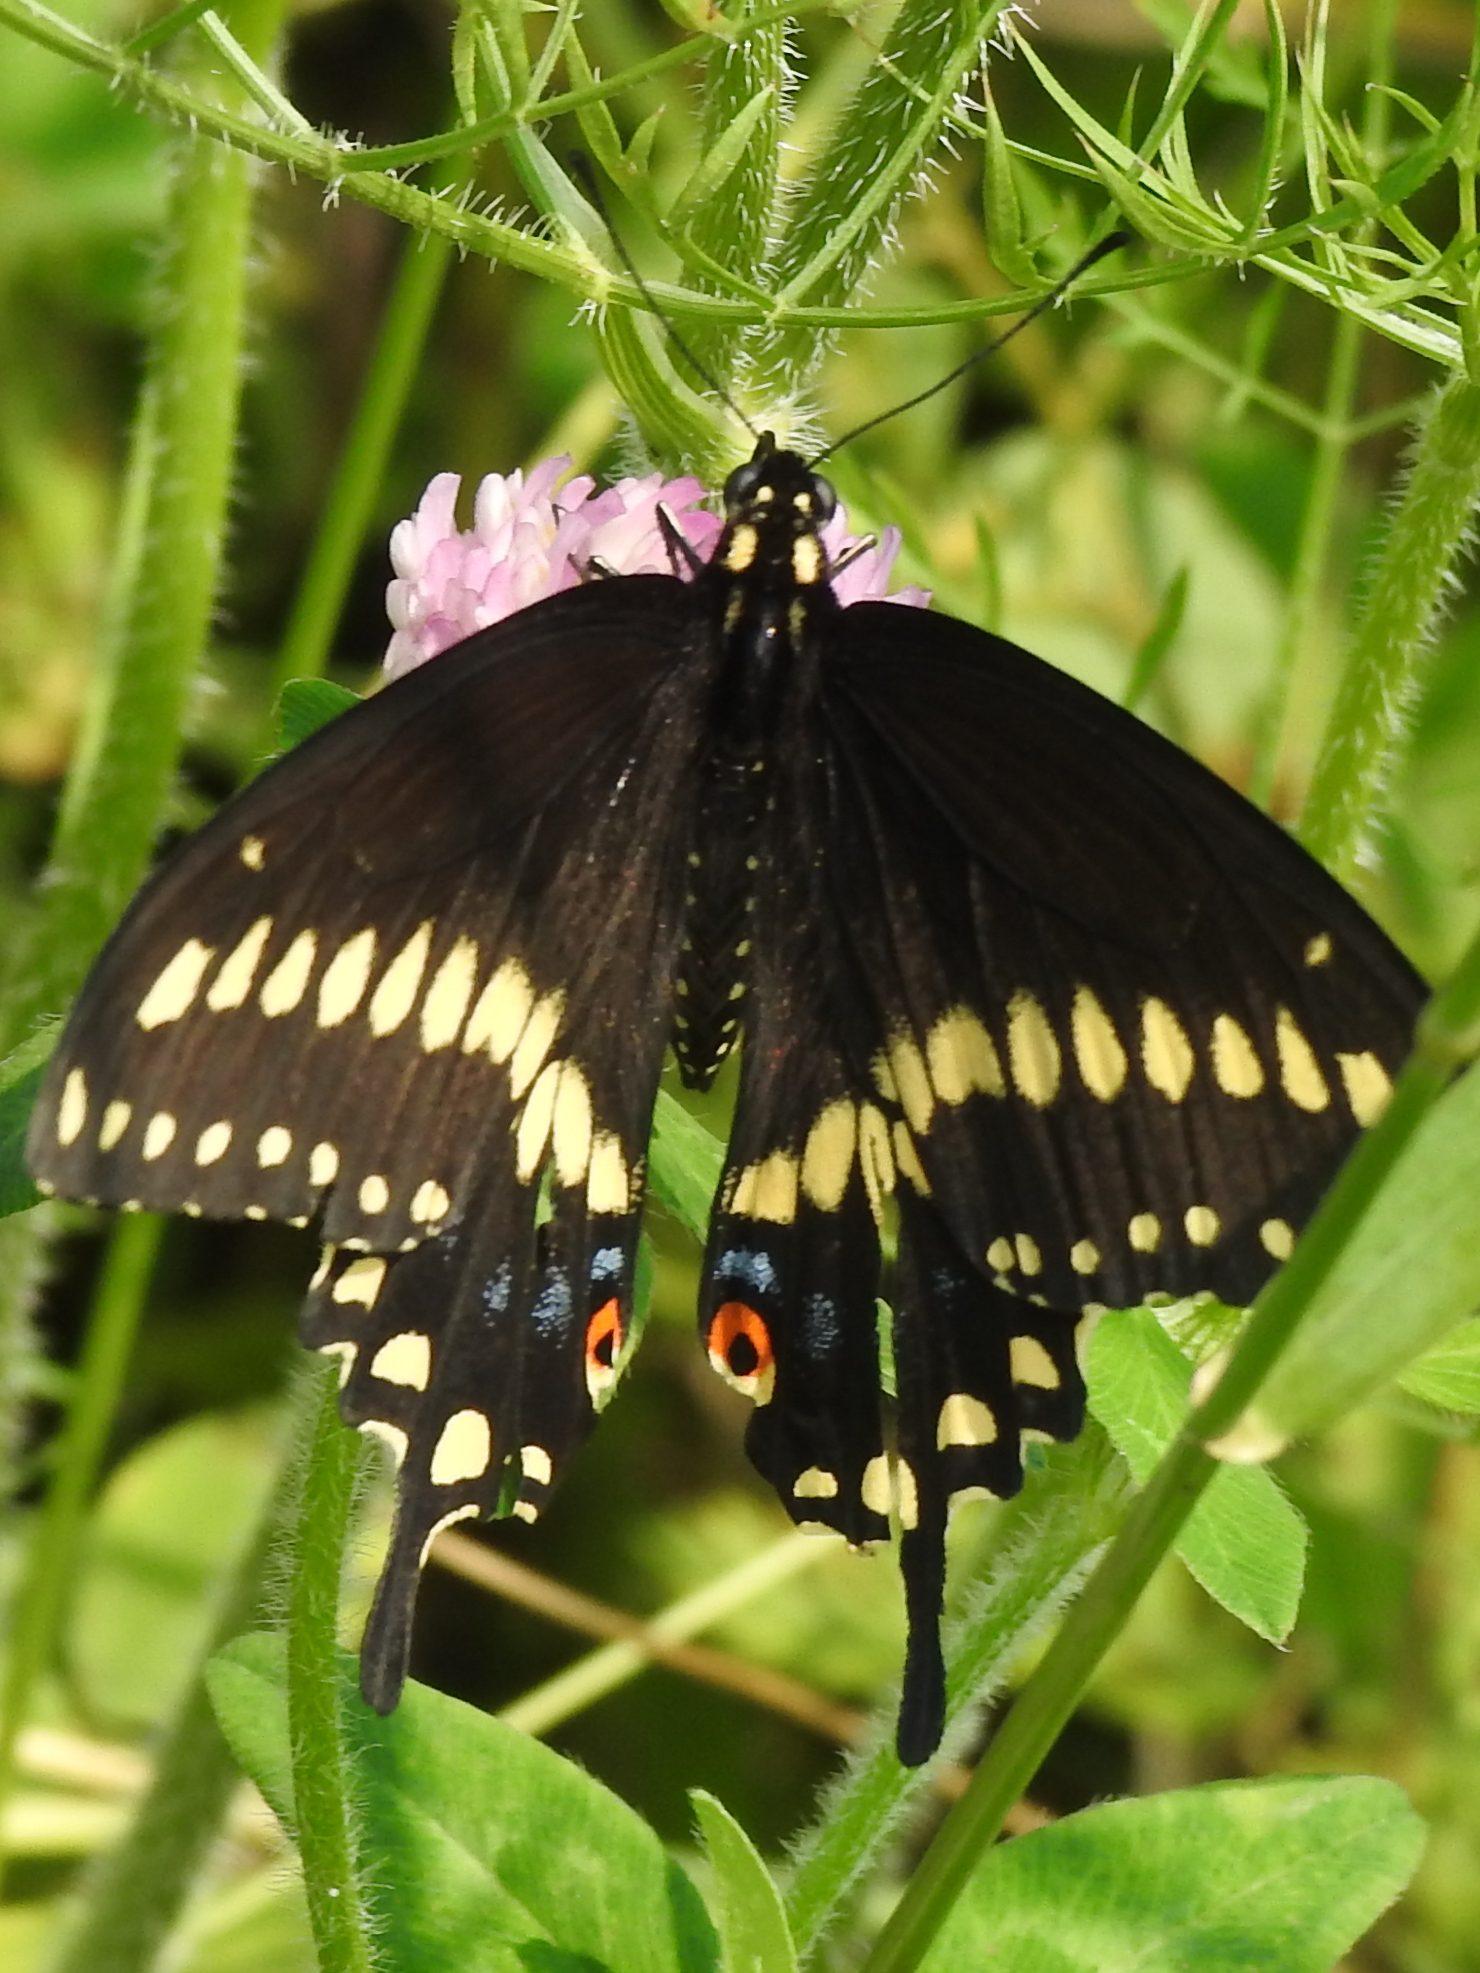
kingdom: Animalia
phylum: Arthropoda
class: Insecta
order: Lepidoptera
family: Papilionidae
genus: Papilio
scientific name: Papilio polyxenes
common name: Black swallowtail
